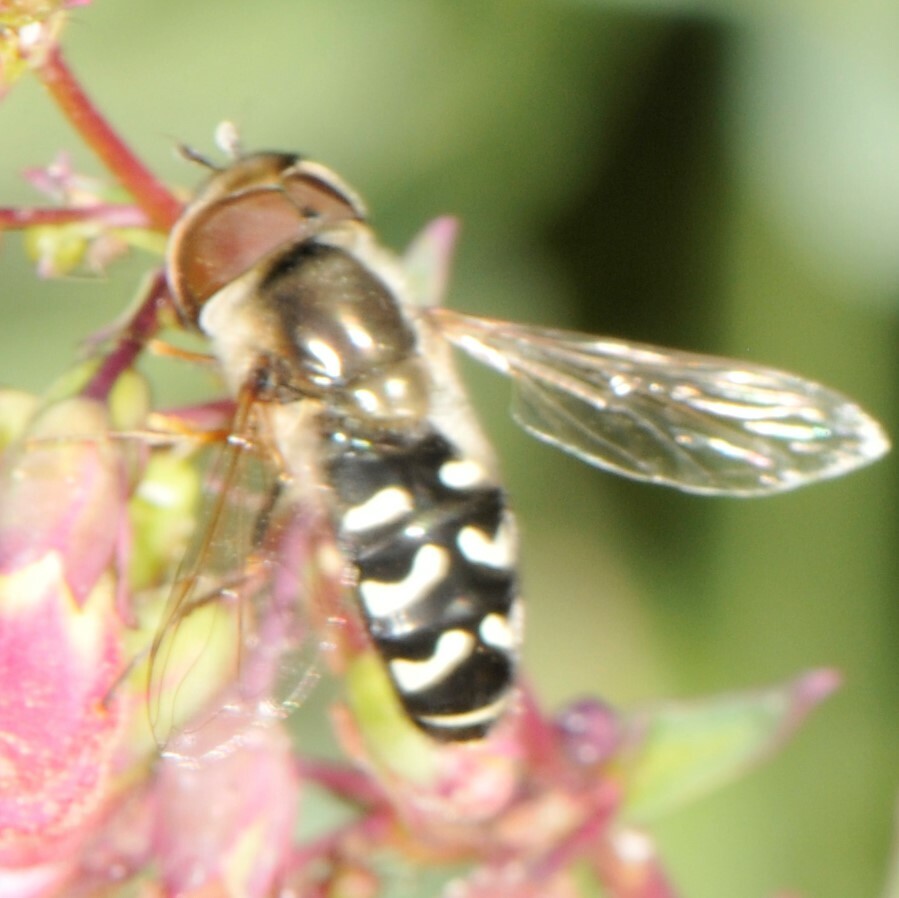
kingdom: Animalia
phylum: Arthropoda
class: Insecta
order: Diptera
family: Syrphidae
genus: Scaeva
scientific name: Scaeva affinis
